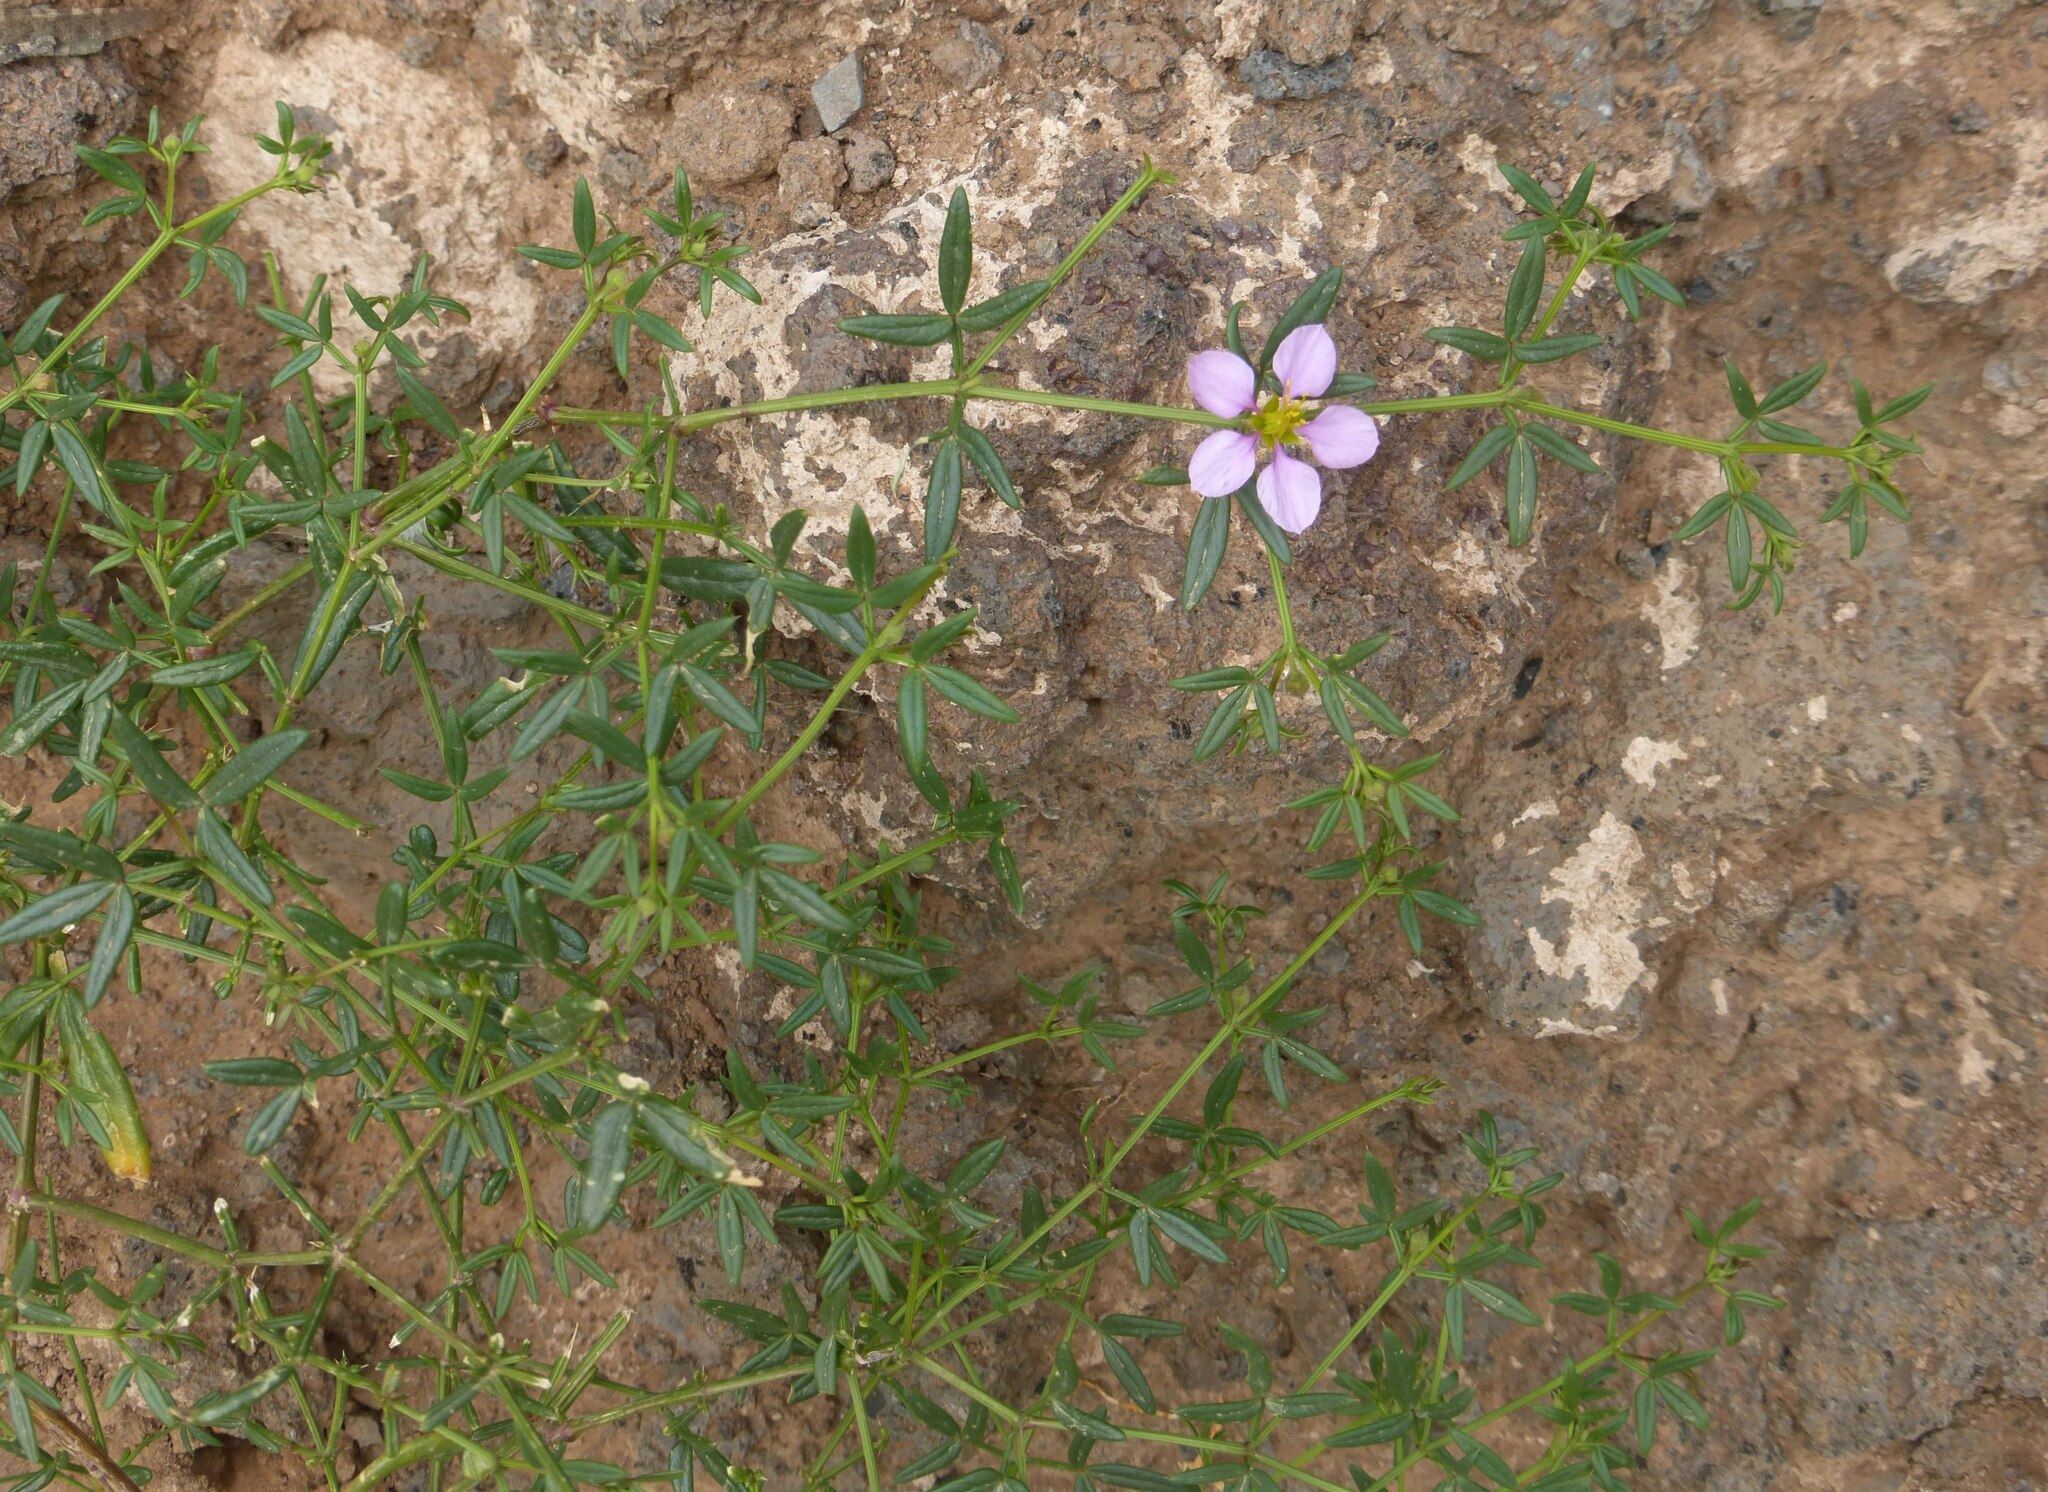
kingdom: Plantae
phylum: Tracheophyta
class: Magnoliopsida
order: Zygophyllales
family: Zygophyllaceae
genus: Fagonia
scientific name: Fagonia cretica
